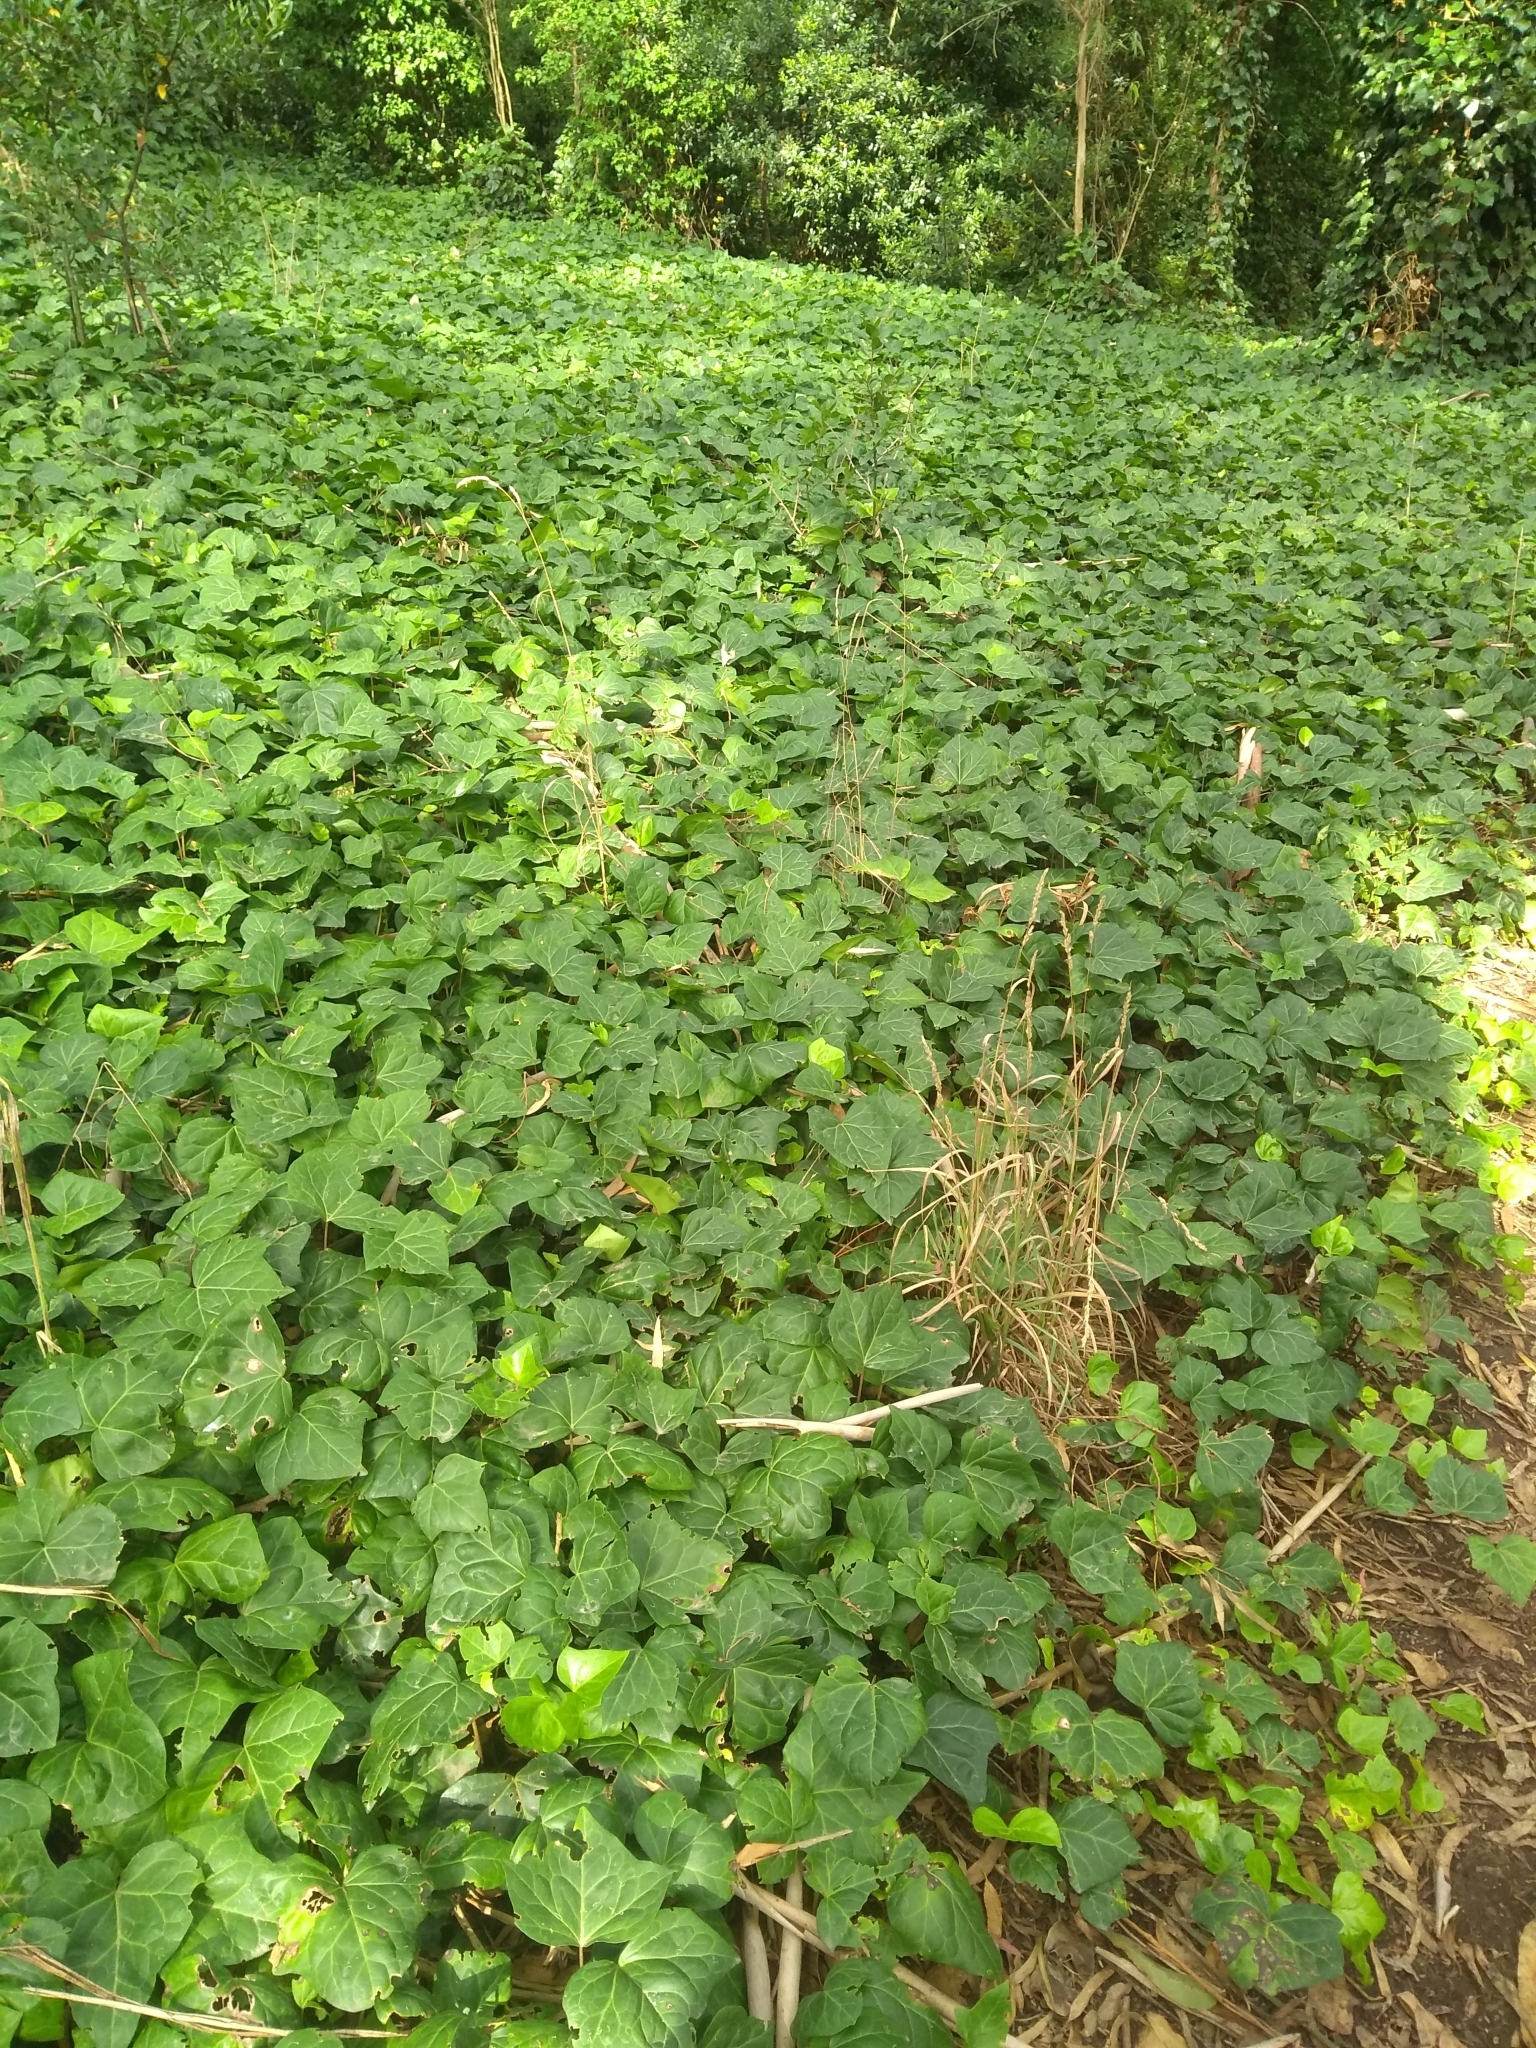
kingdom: Plantae
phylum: Tracheophyta
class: Magnoliopsida
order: Apiales
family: Araliaceae
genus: Hedera
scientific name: Hedera helix
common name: Ivy
